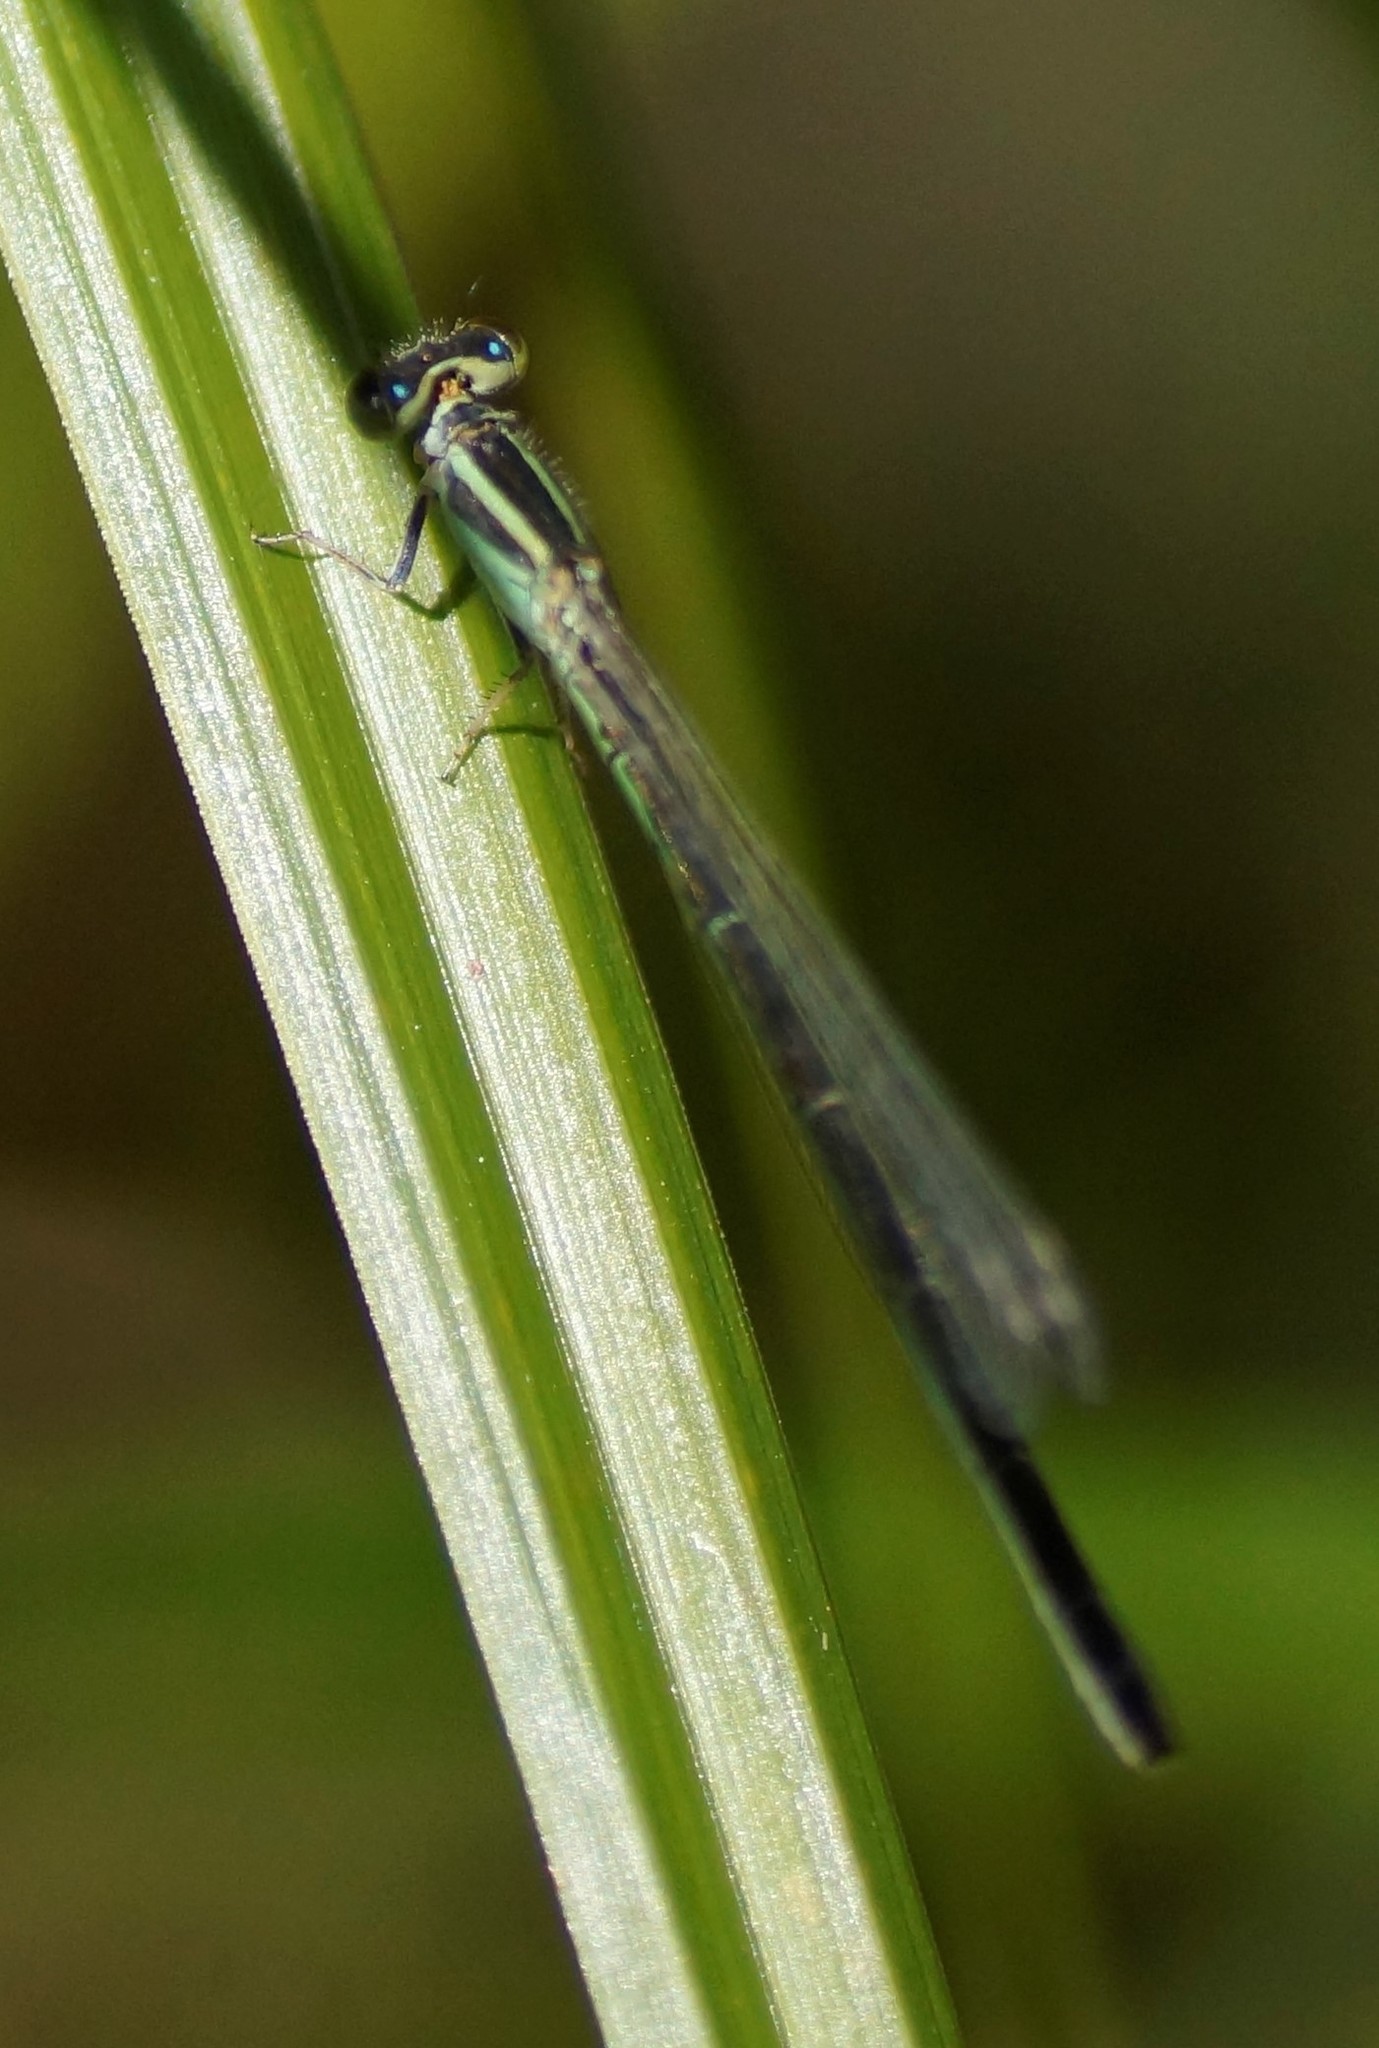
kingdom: Animalia
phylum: Arthropoda
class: Insecta
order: Odonata
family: Coenagrionidae
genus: Ischnura
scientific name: Ischnura aurora
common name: Gossamer damselfly
